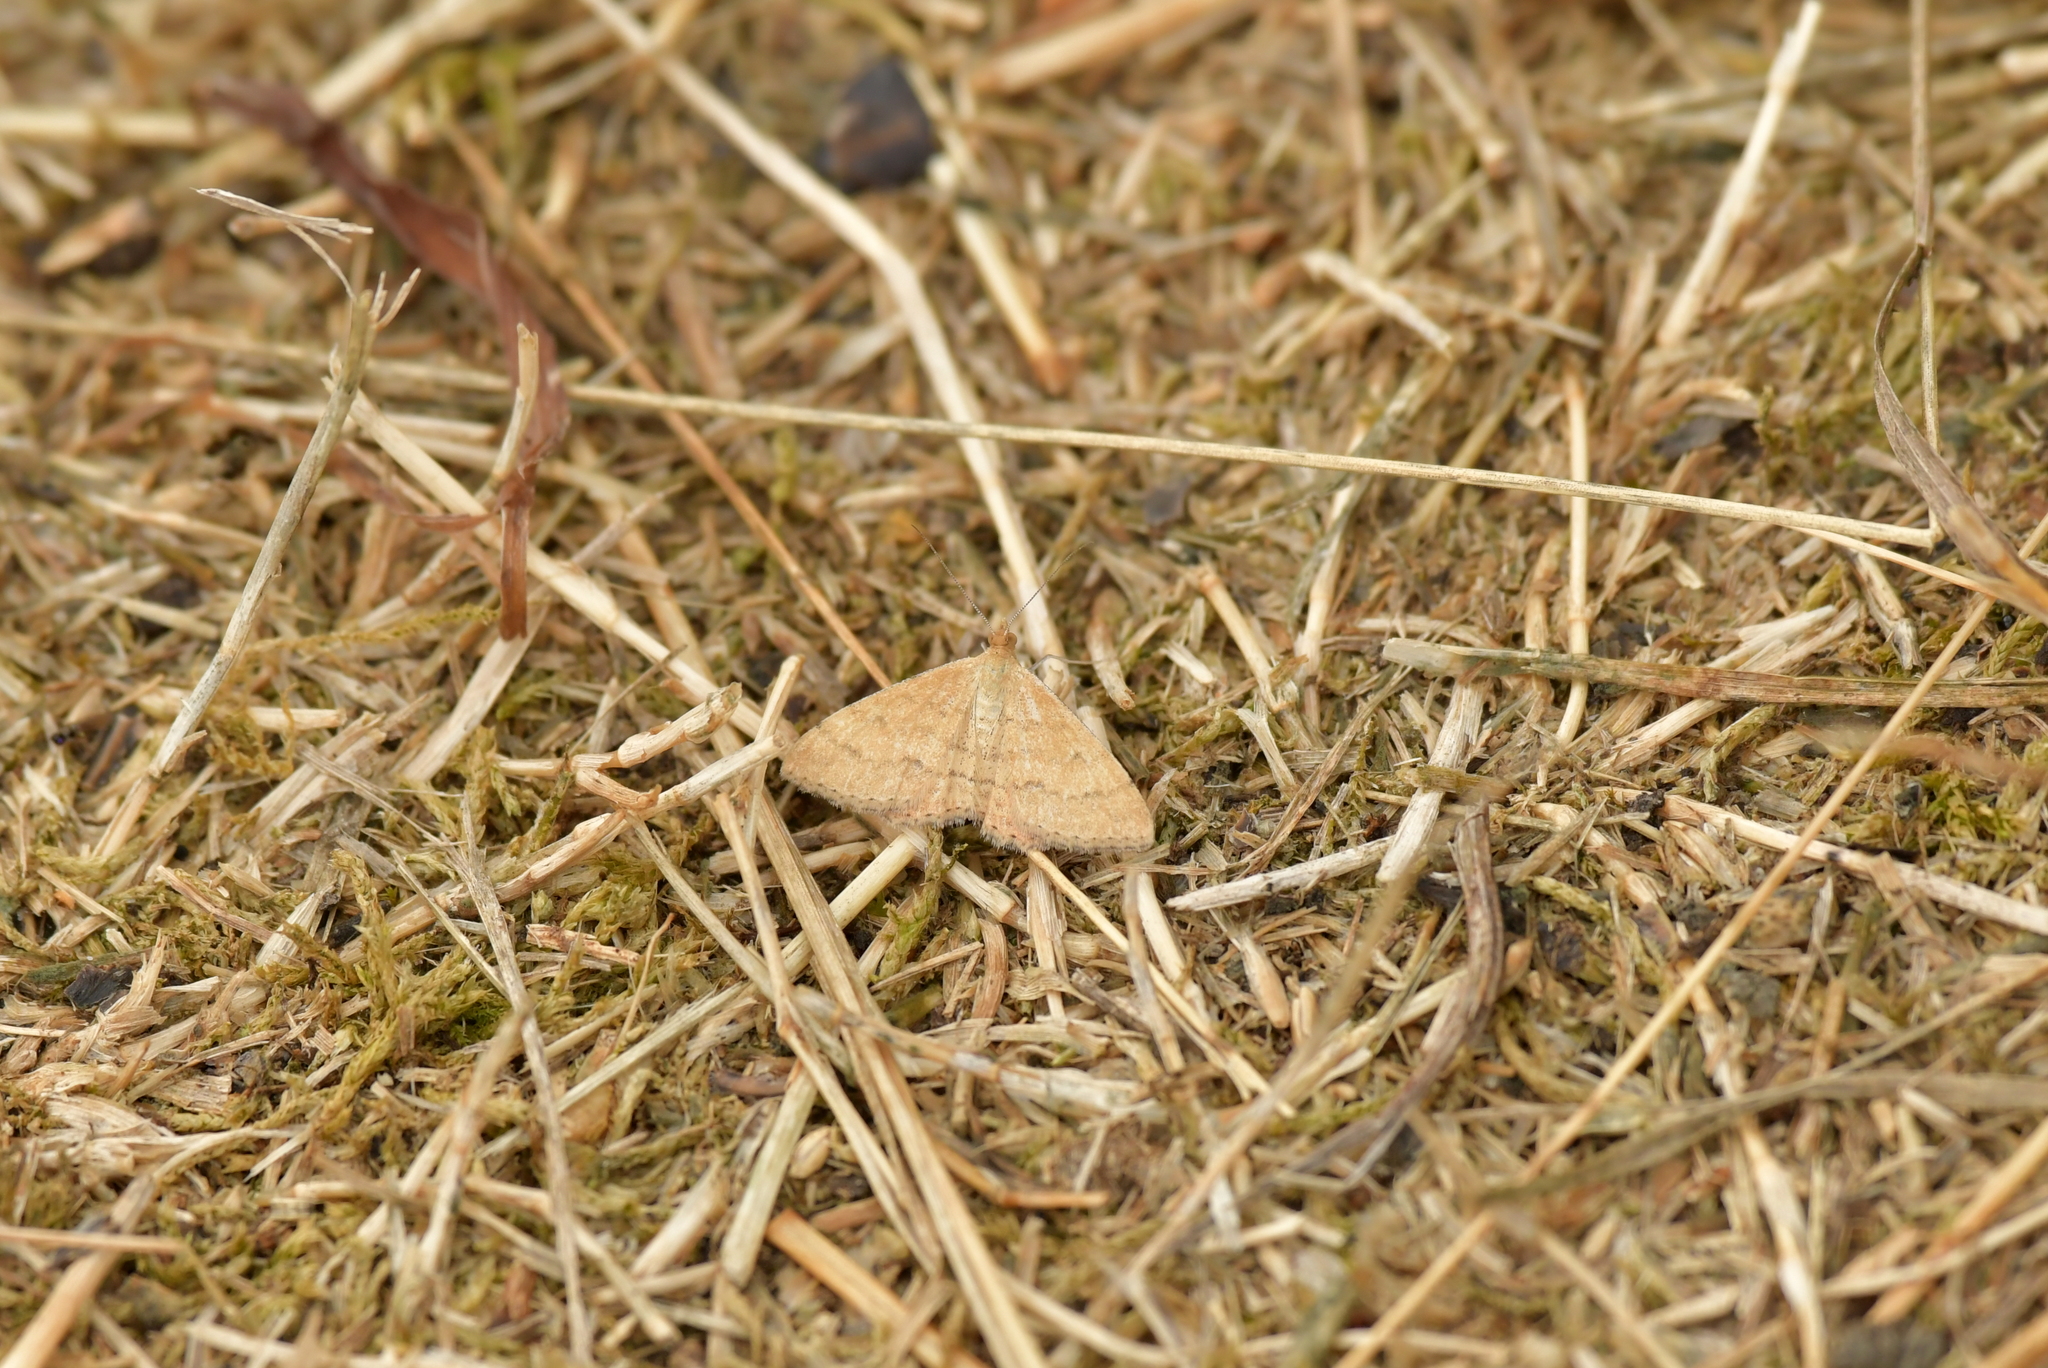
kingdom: Animalia
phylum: Arthropoda
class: Insecta
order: Lepidoptera
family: Geometridae
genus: Scopula
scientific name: Scopula rubraria
